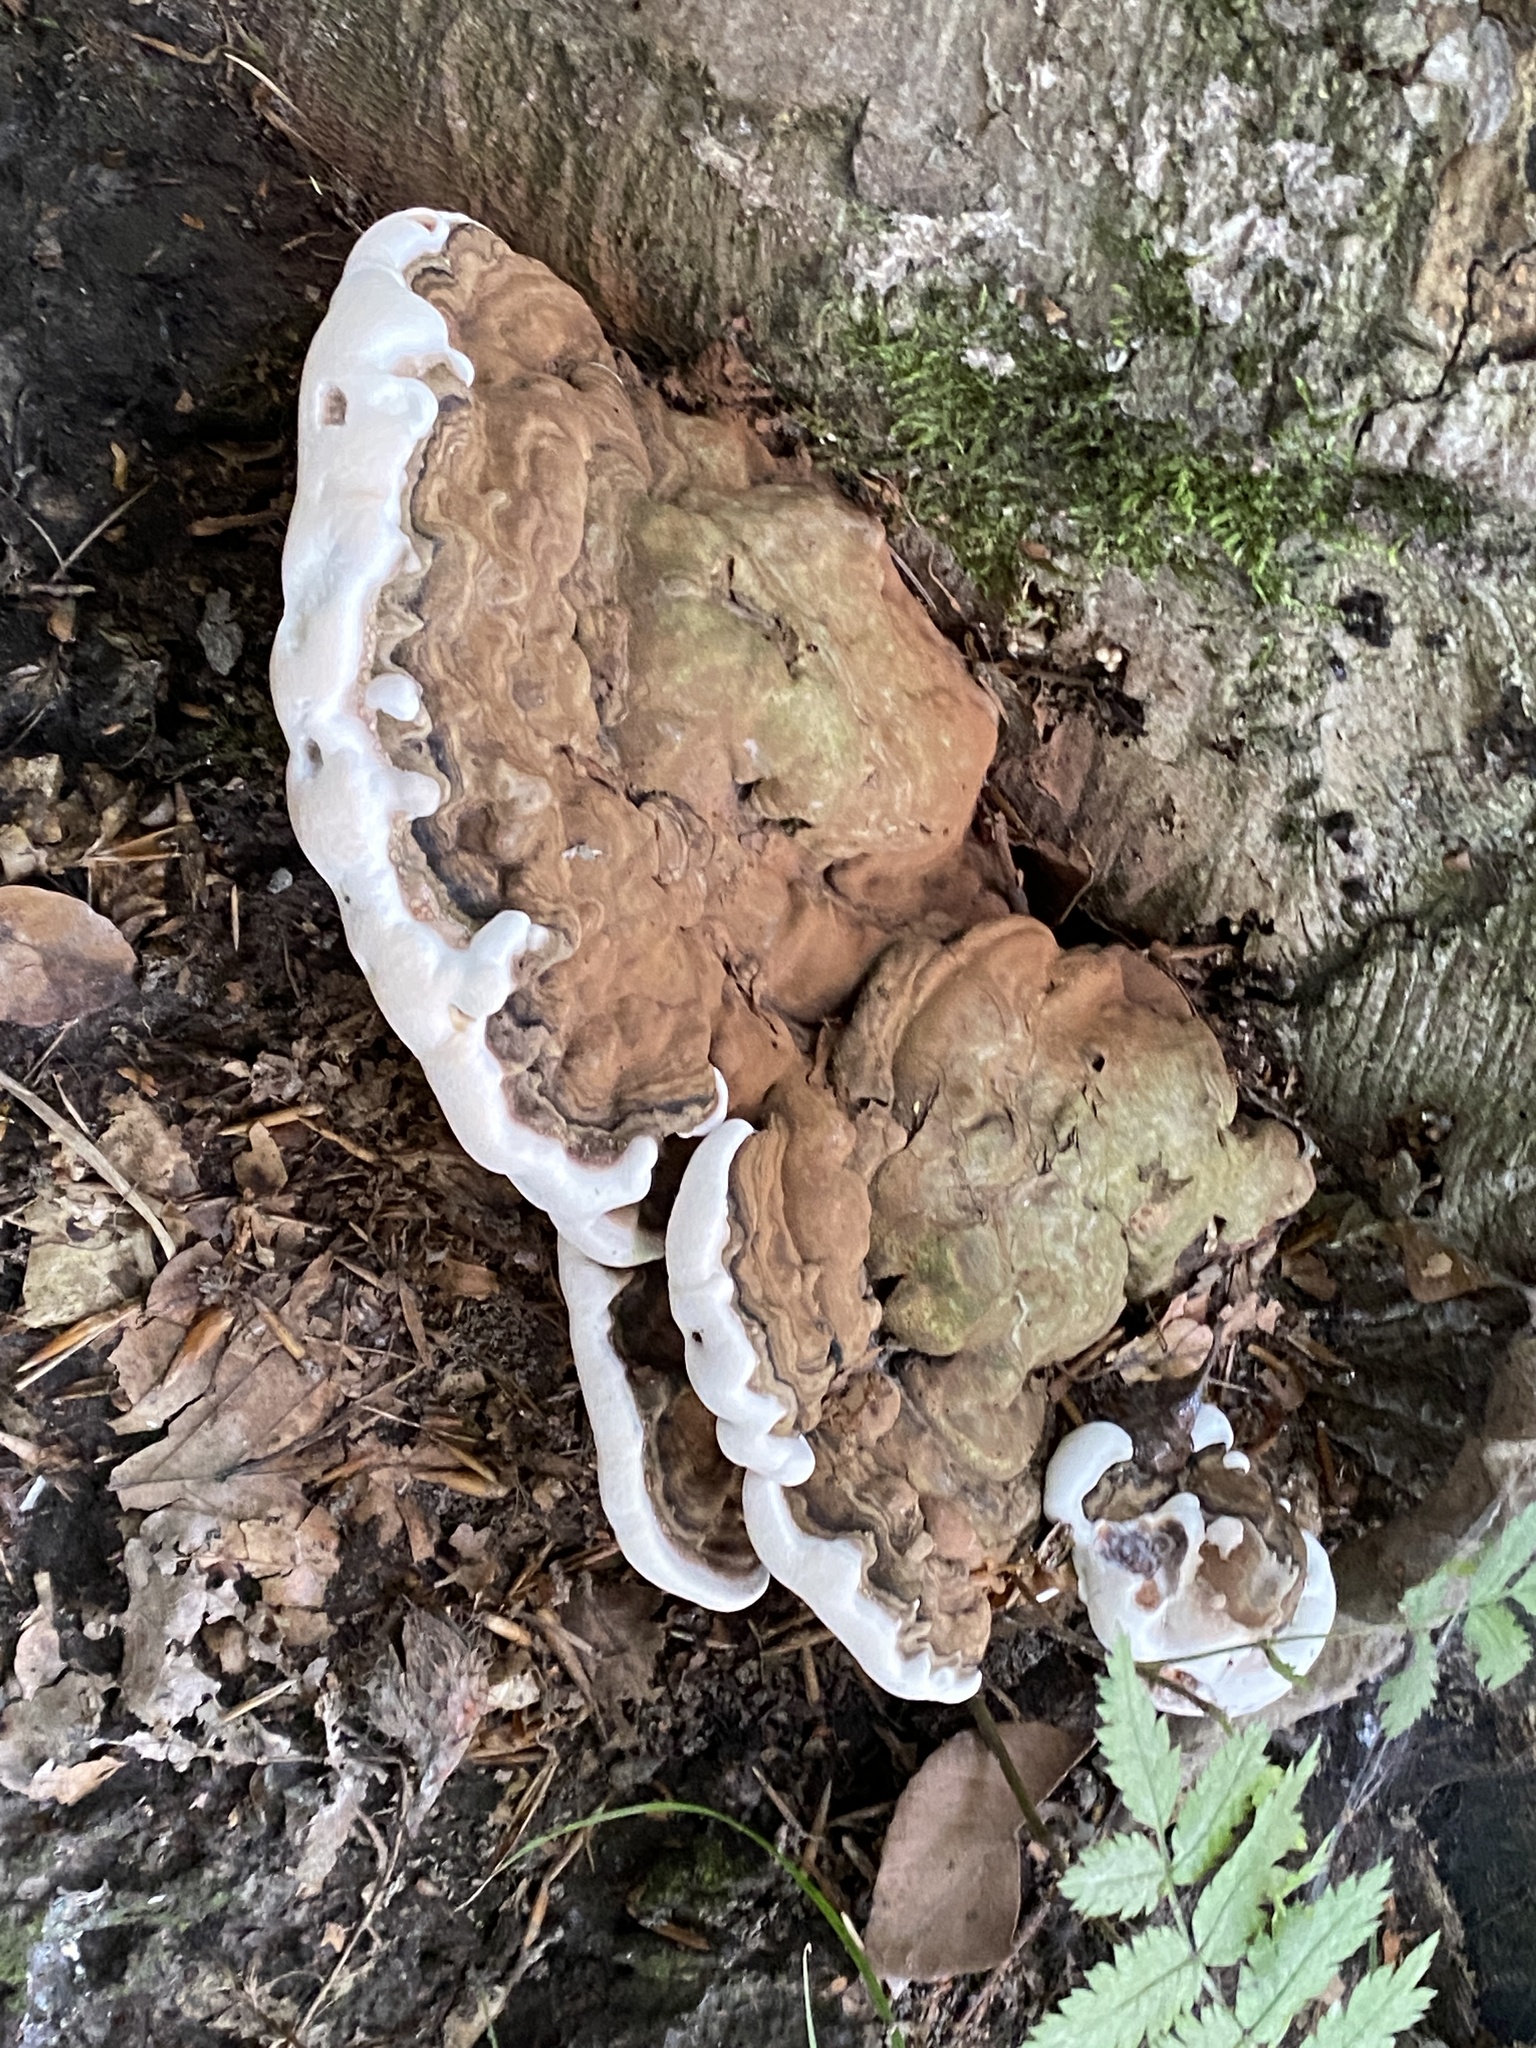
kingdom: Fungi
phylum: Basidiomycota
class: Agaricomycetes
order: Polyporales
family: Polyporaceae
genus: Ganoderma
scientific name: Ganoderma applanatum
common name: Artist's bracket
